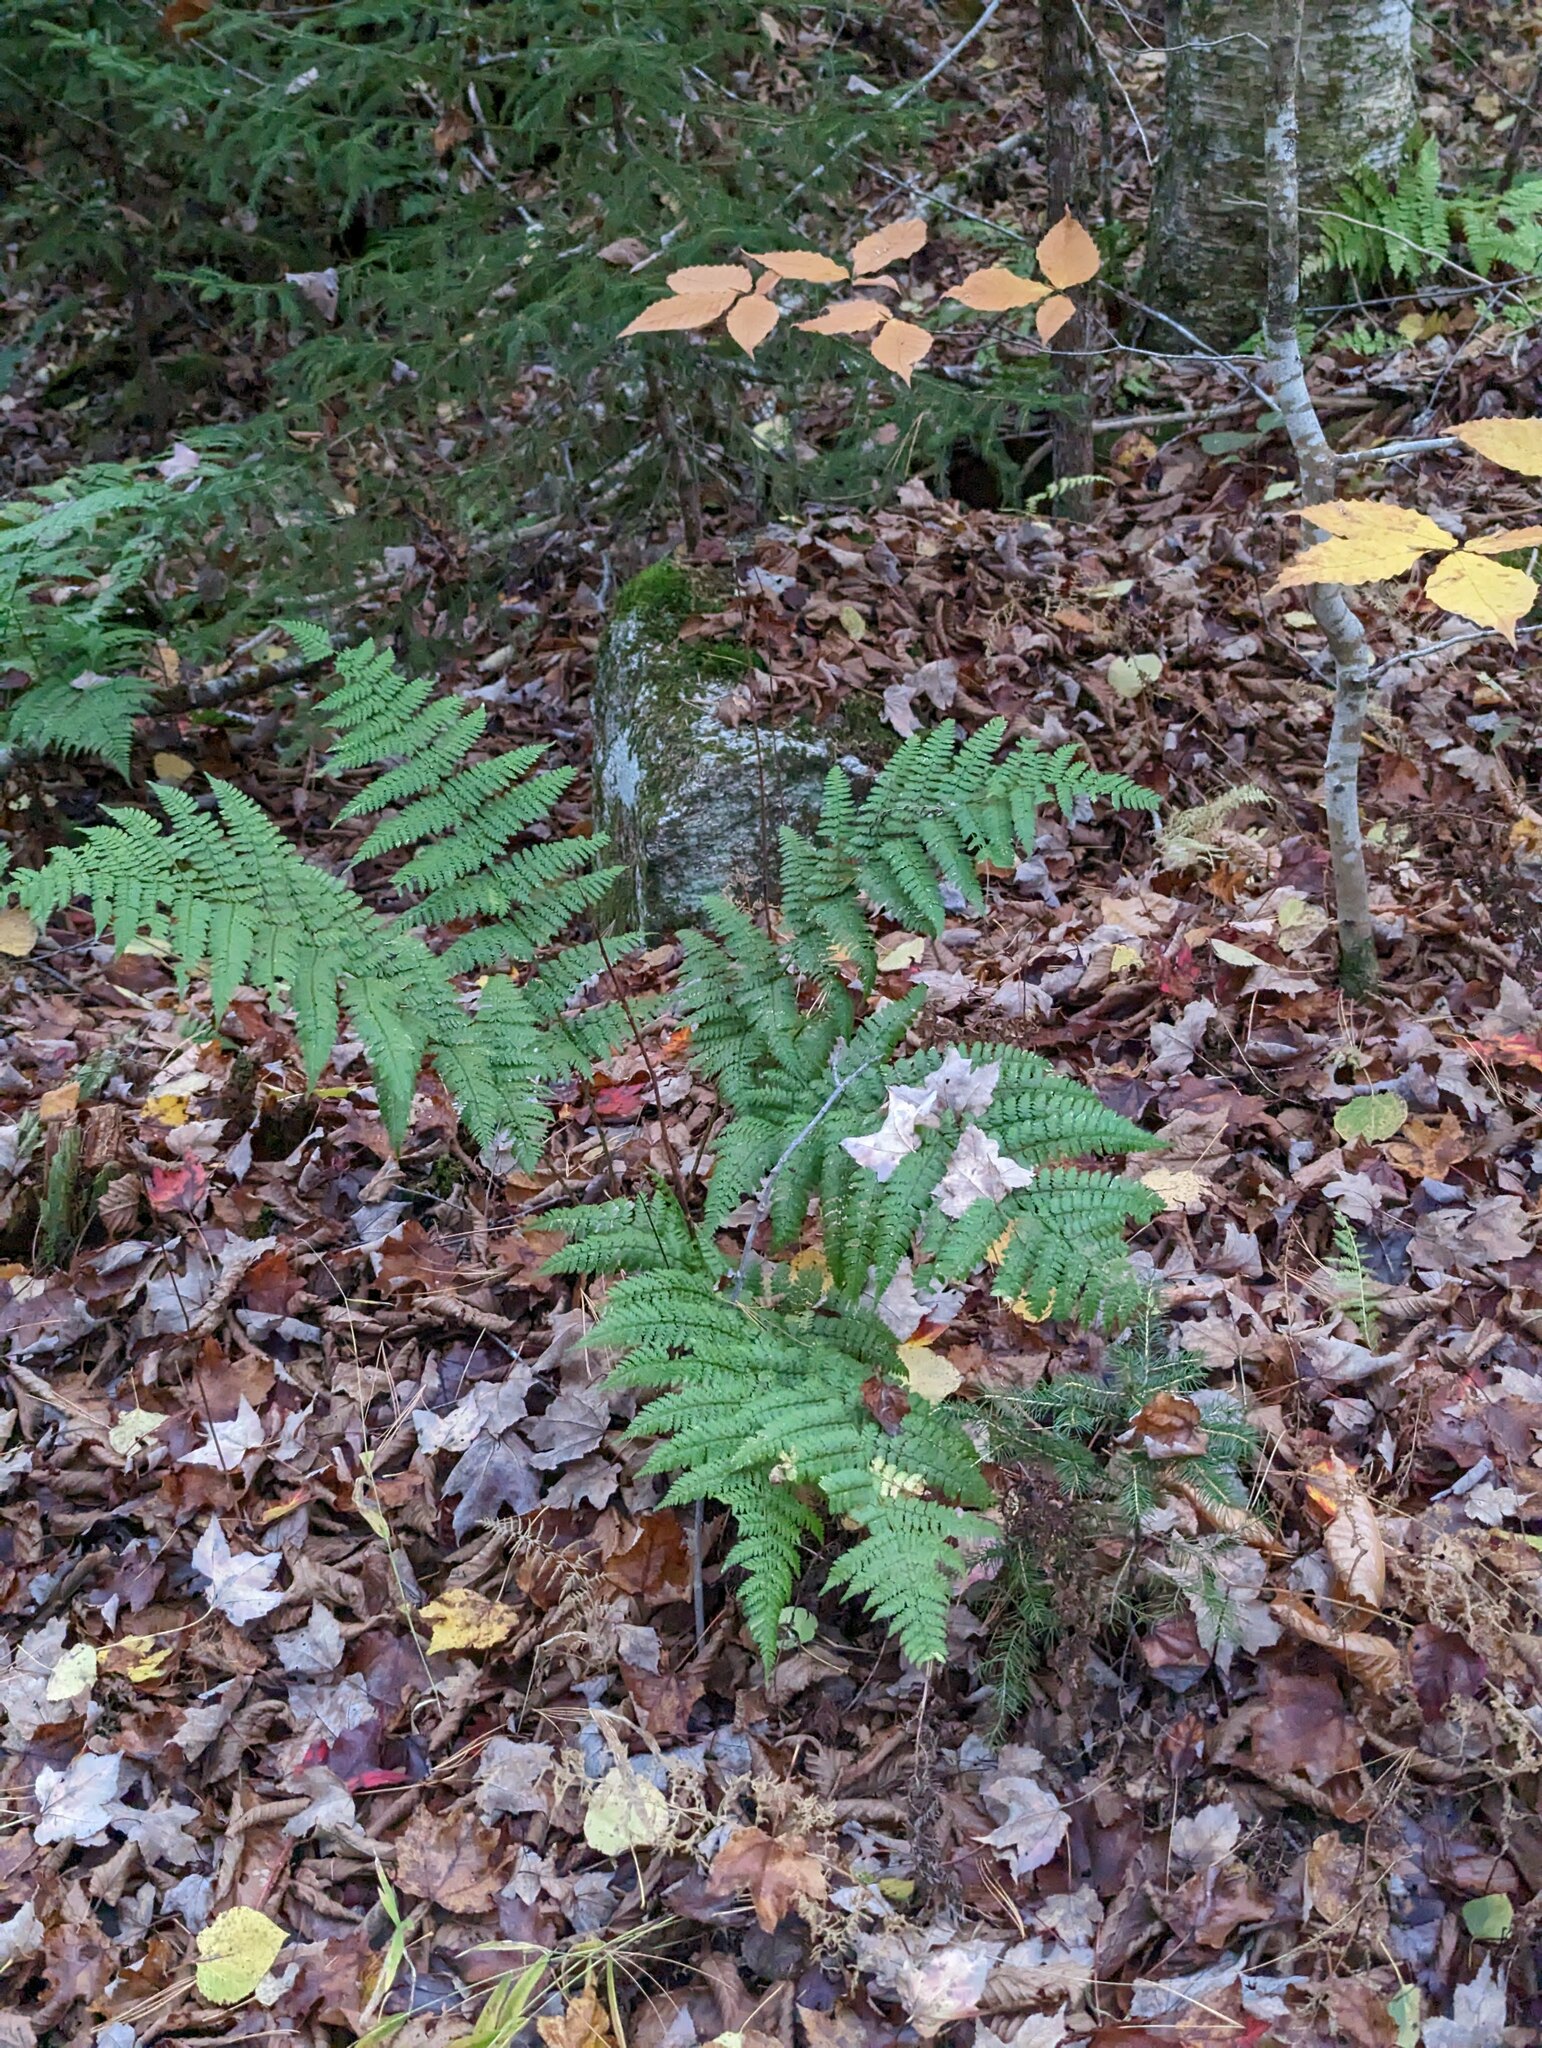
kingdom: Plantae
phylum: Tracheophyta
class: Polypodiopsida
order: Polypodiales
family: Dryopteridaceae
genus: Dryopteris
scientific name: Dryopteris intermedia
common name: Evergreen wood fern
